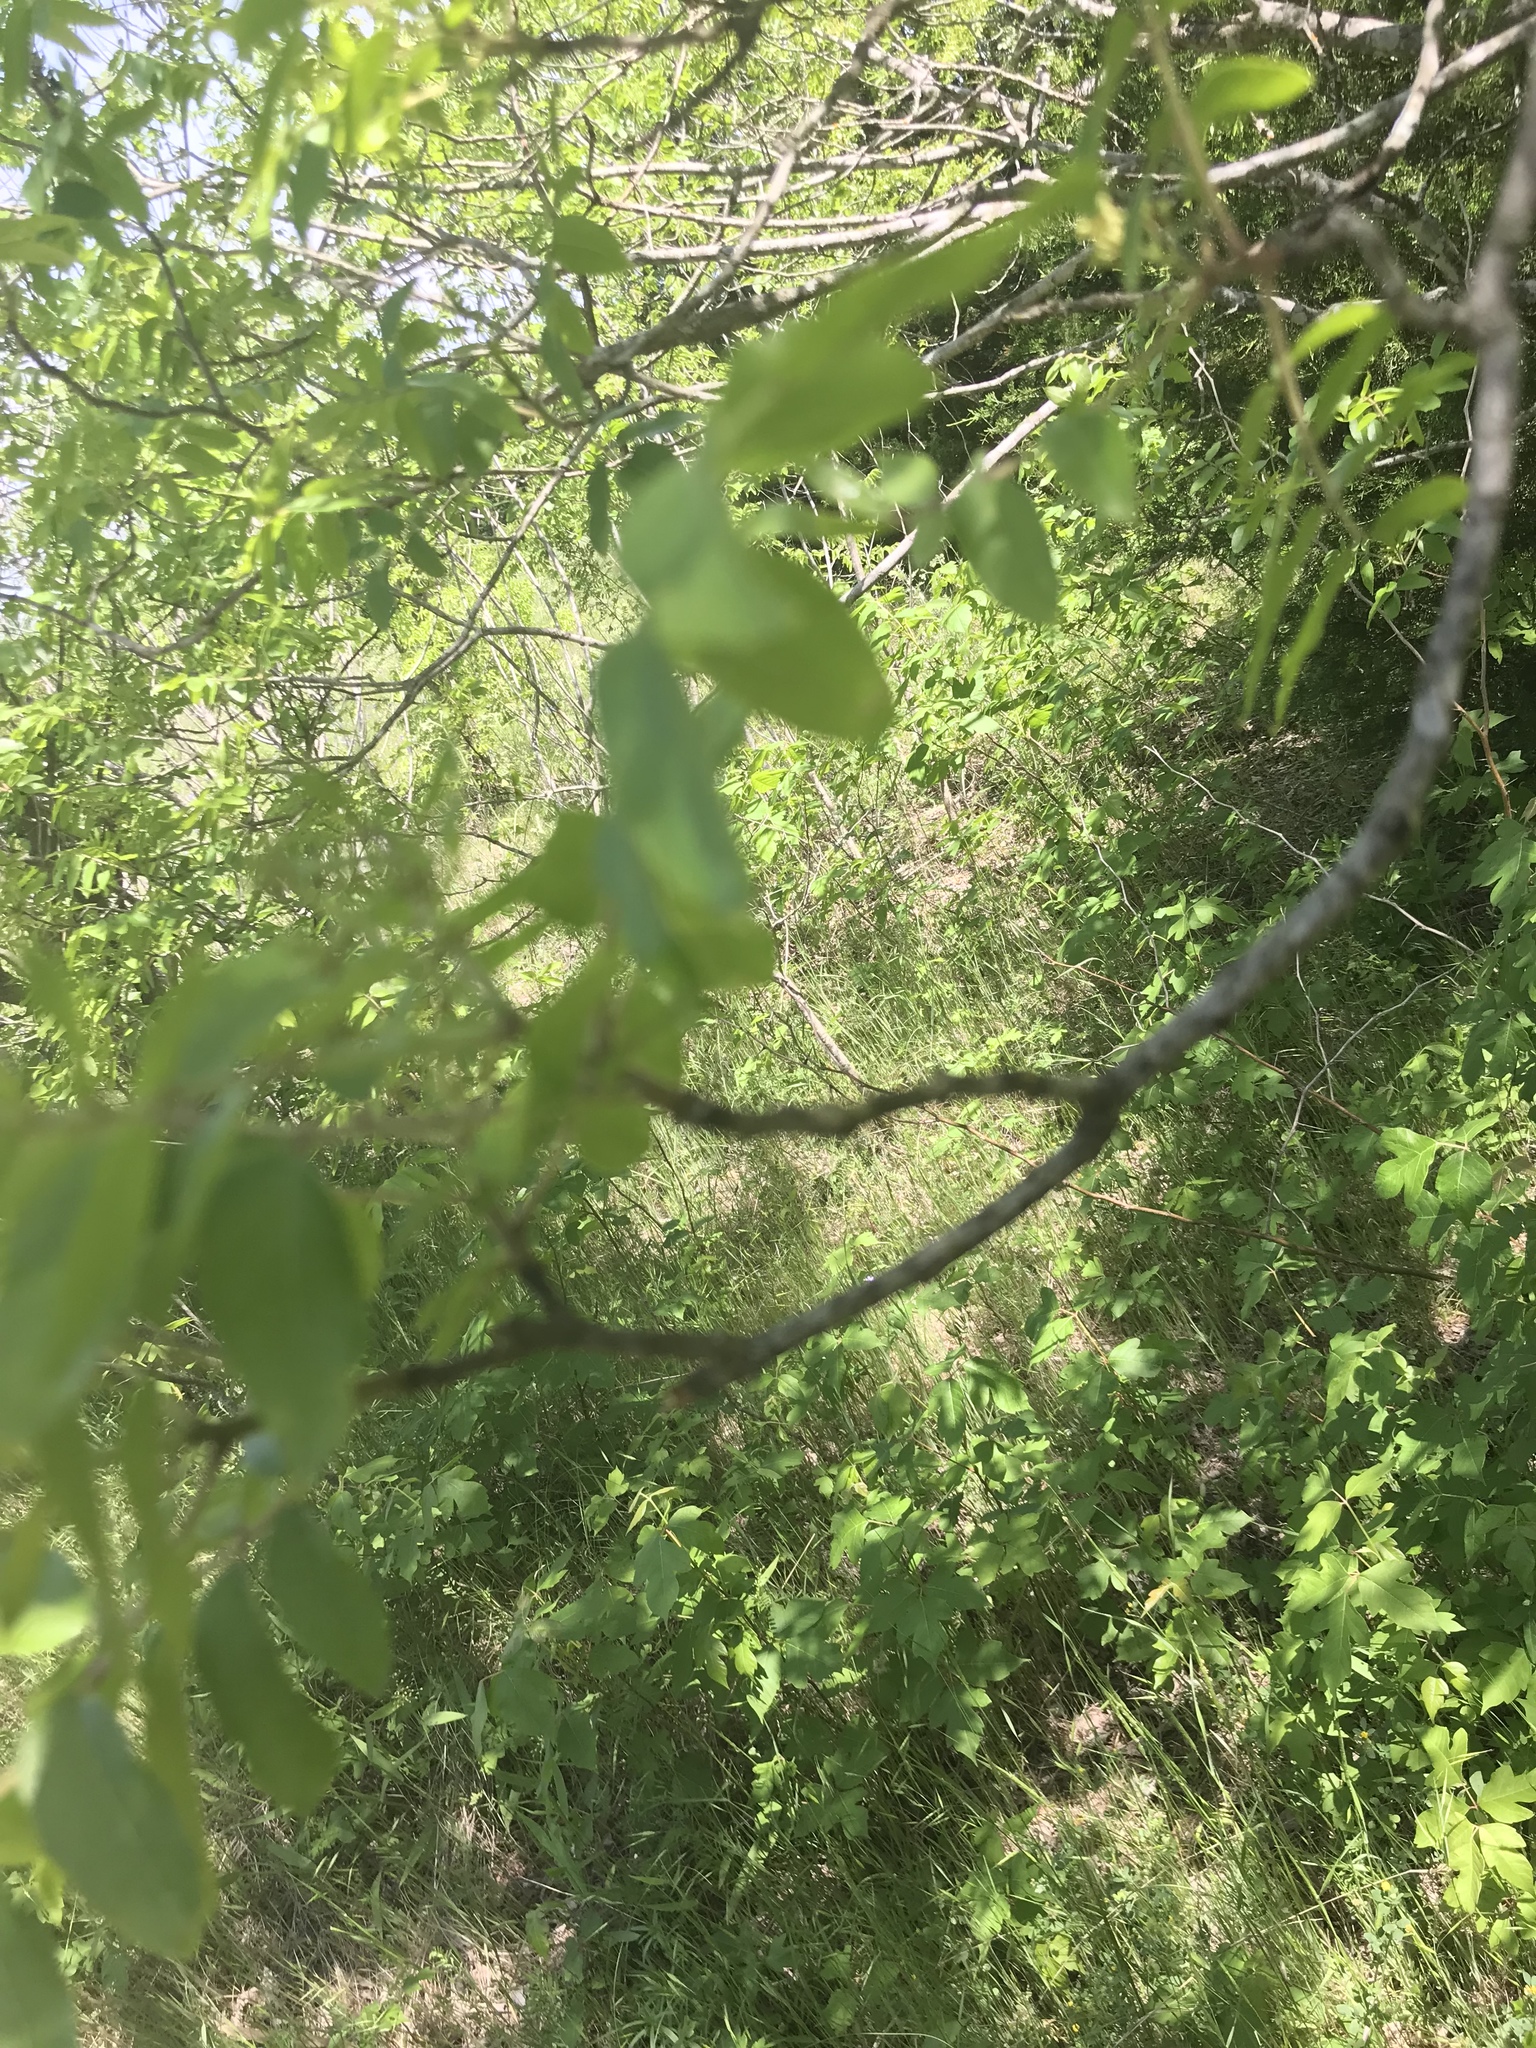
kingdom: Plantae
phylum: Tracheophyta
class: Magnoliopsida
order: Sapindales
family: Rutaceae
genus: Zanthoxylum
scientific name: Zanthoxylum clava-herculis
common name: Hercules'-club
